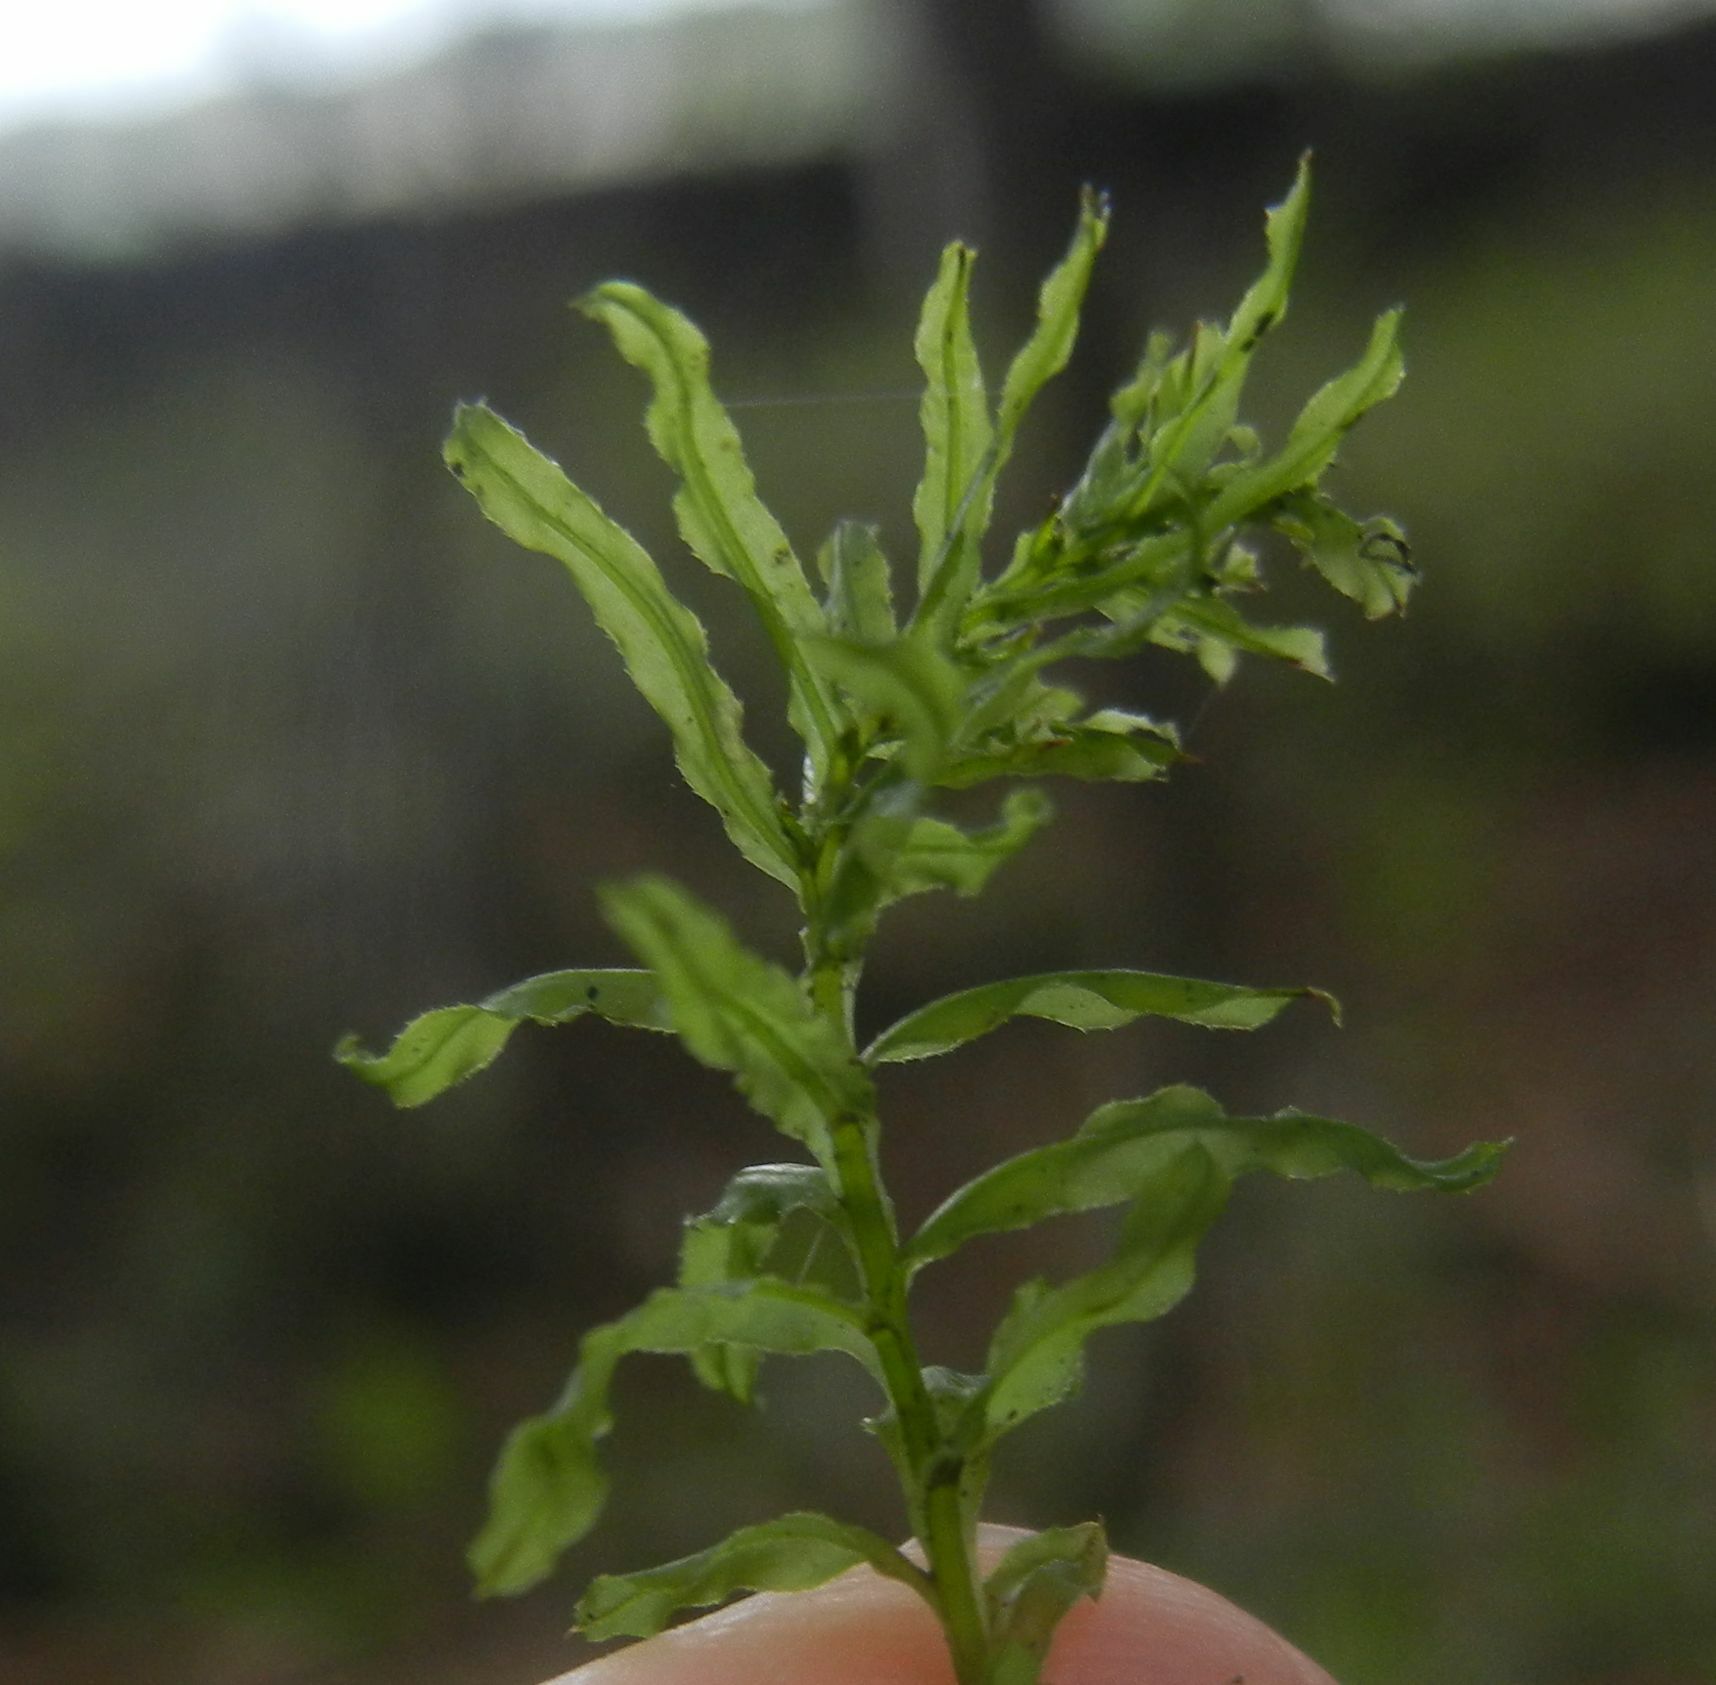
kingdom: Plantae
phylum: Bryophyta
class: Bryopsida
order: Bryales
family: Mniaceae
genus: Plagiomnium
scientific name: Plagiomnium undulatum
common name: Hart's-tongue thyme-moss
